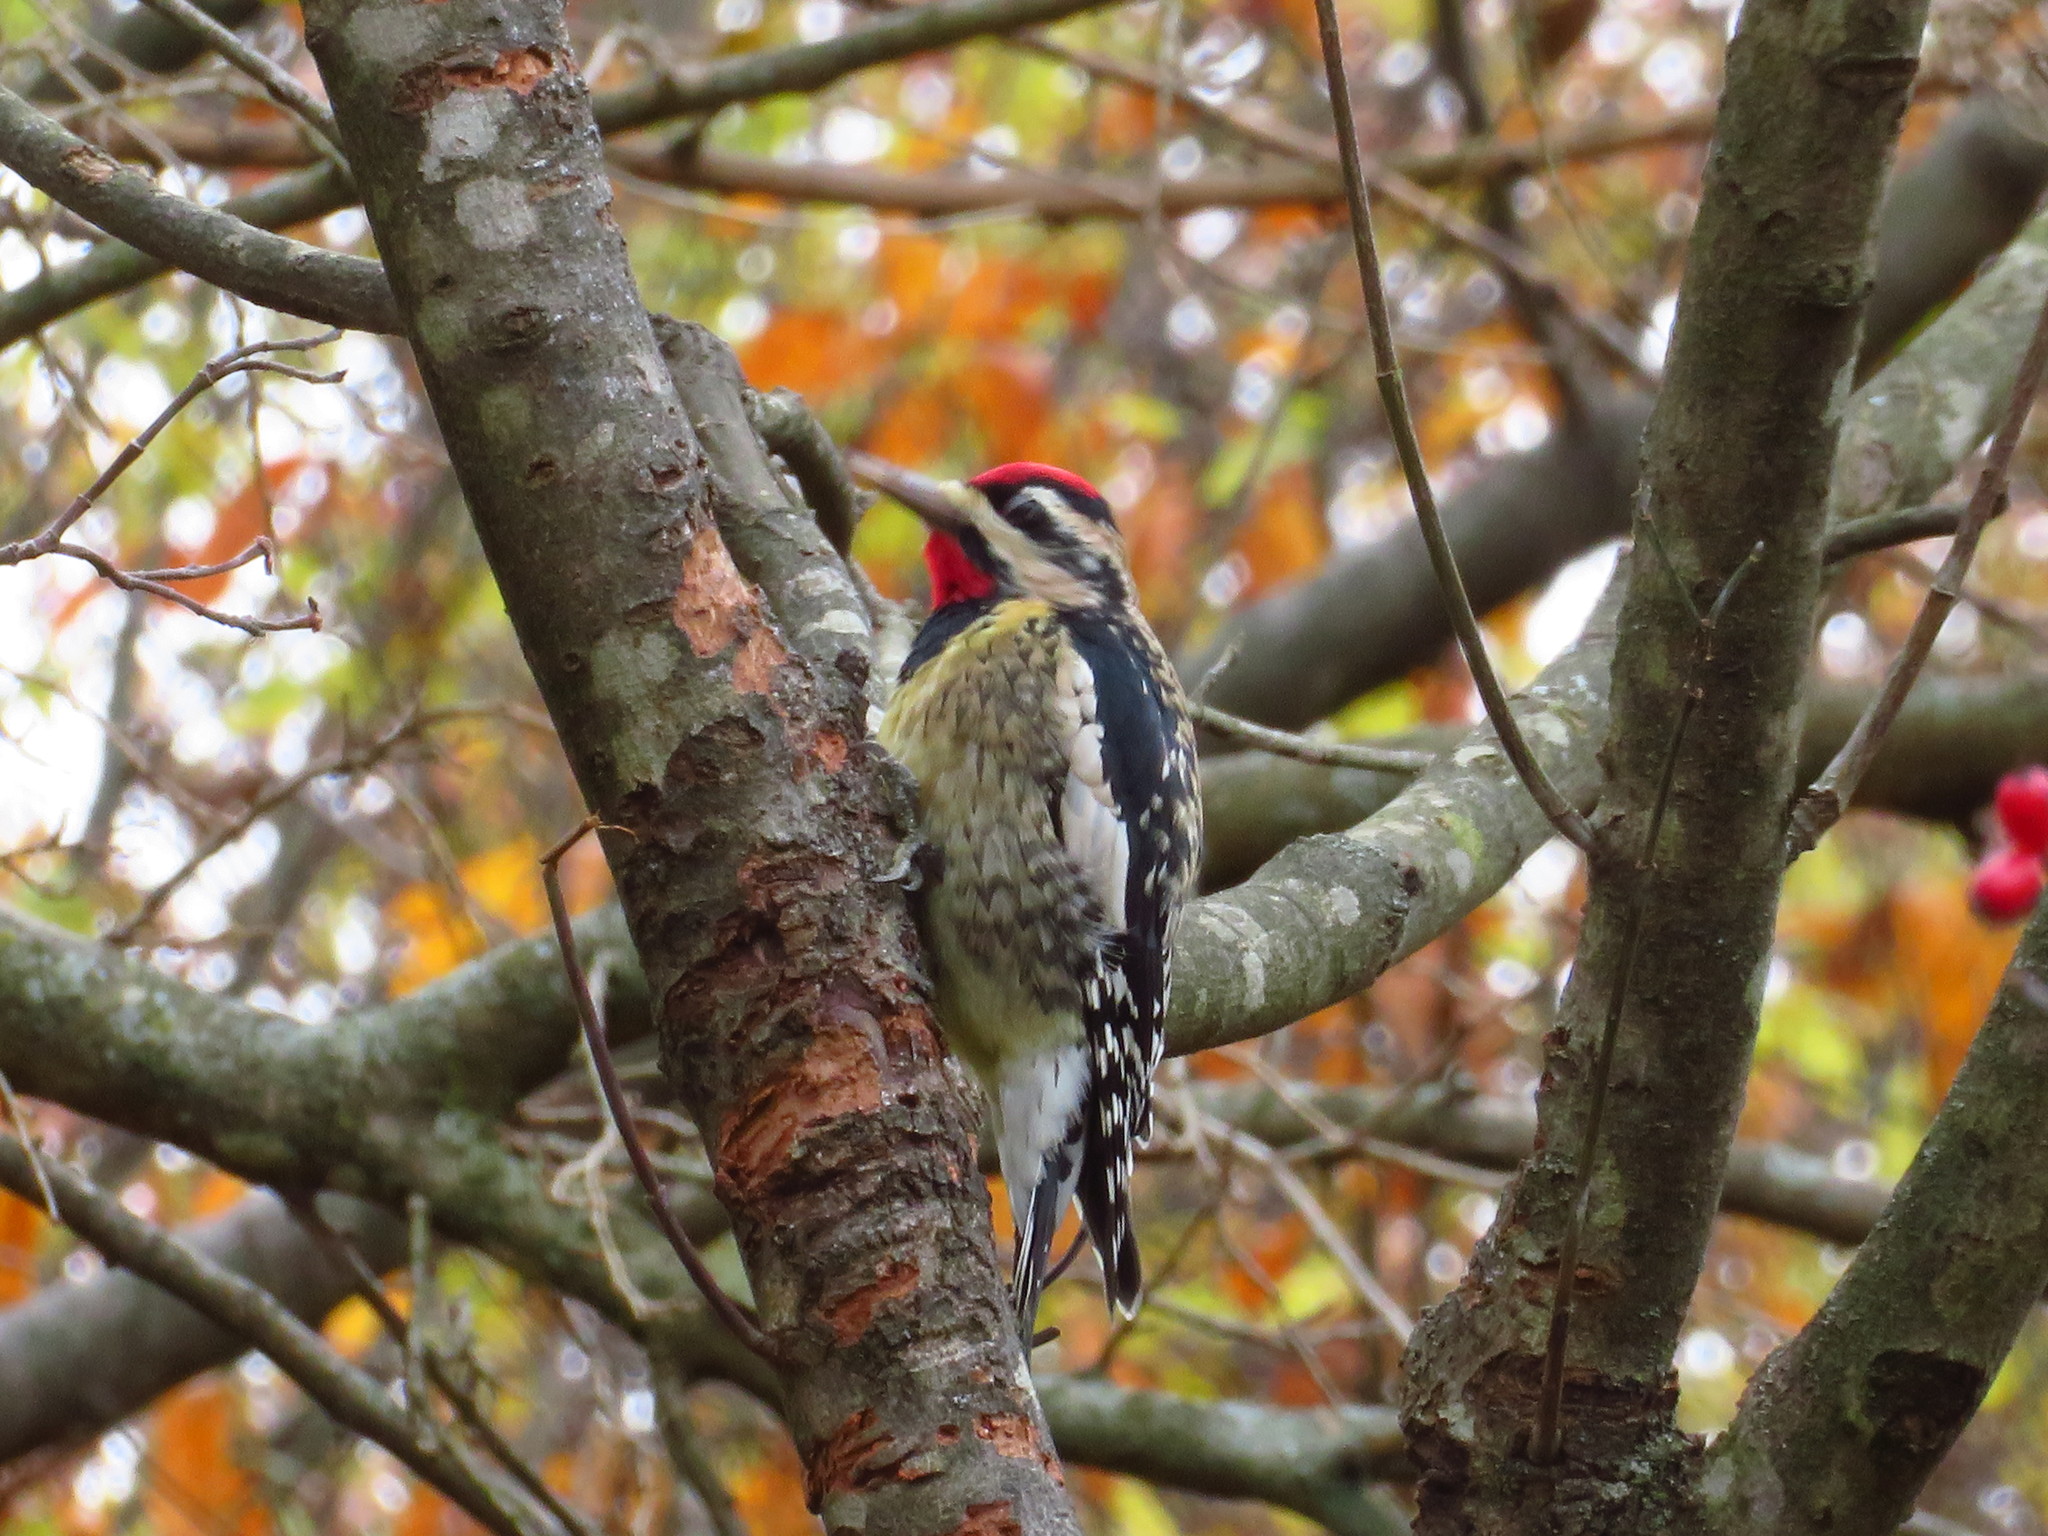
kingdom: Animalia
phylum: Chordata
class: Aves
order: Piciformes
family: Picidae
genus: Sphyrapicus
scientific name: Sphyrapicus varius
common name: Yellow-bellied sapsucker
